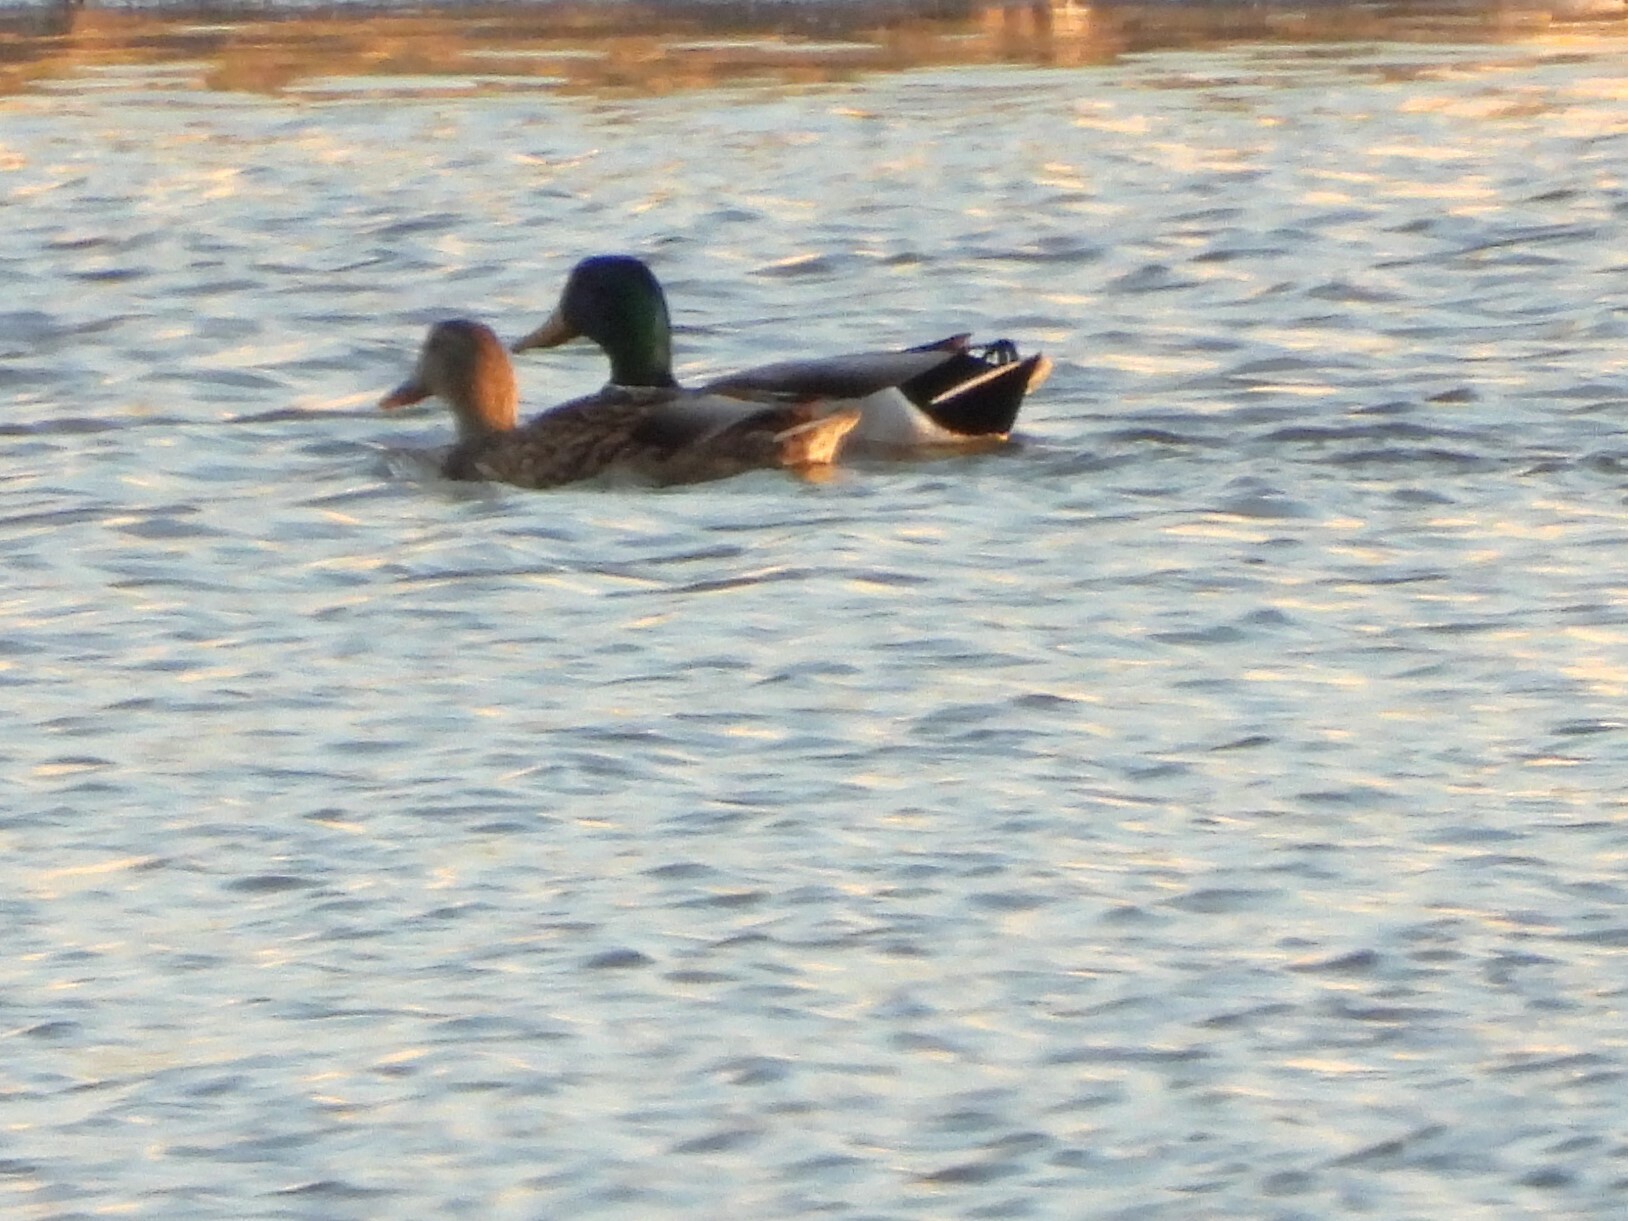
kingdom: Animalia
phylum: Chordata
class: Aves
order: Anseriformes
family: Anatidae
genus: Anas
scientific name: Anas platyrhynchos
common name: Mallard
